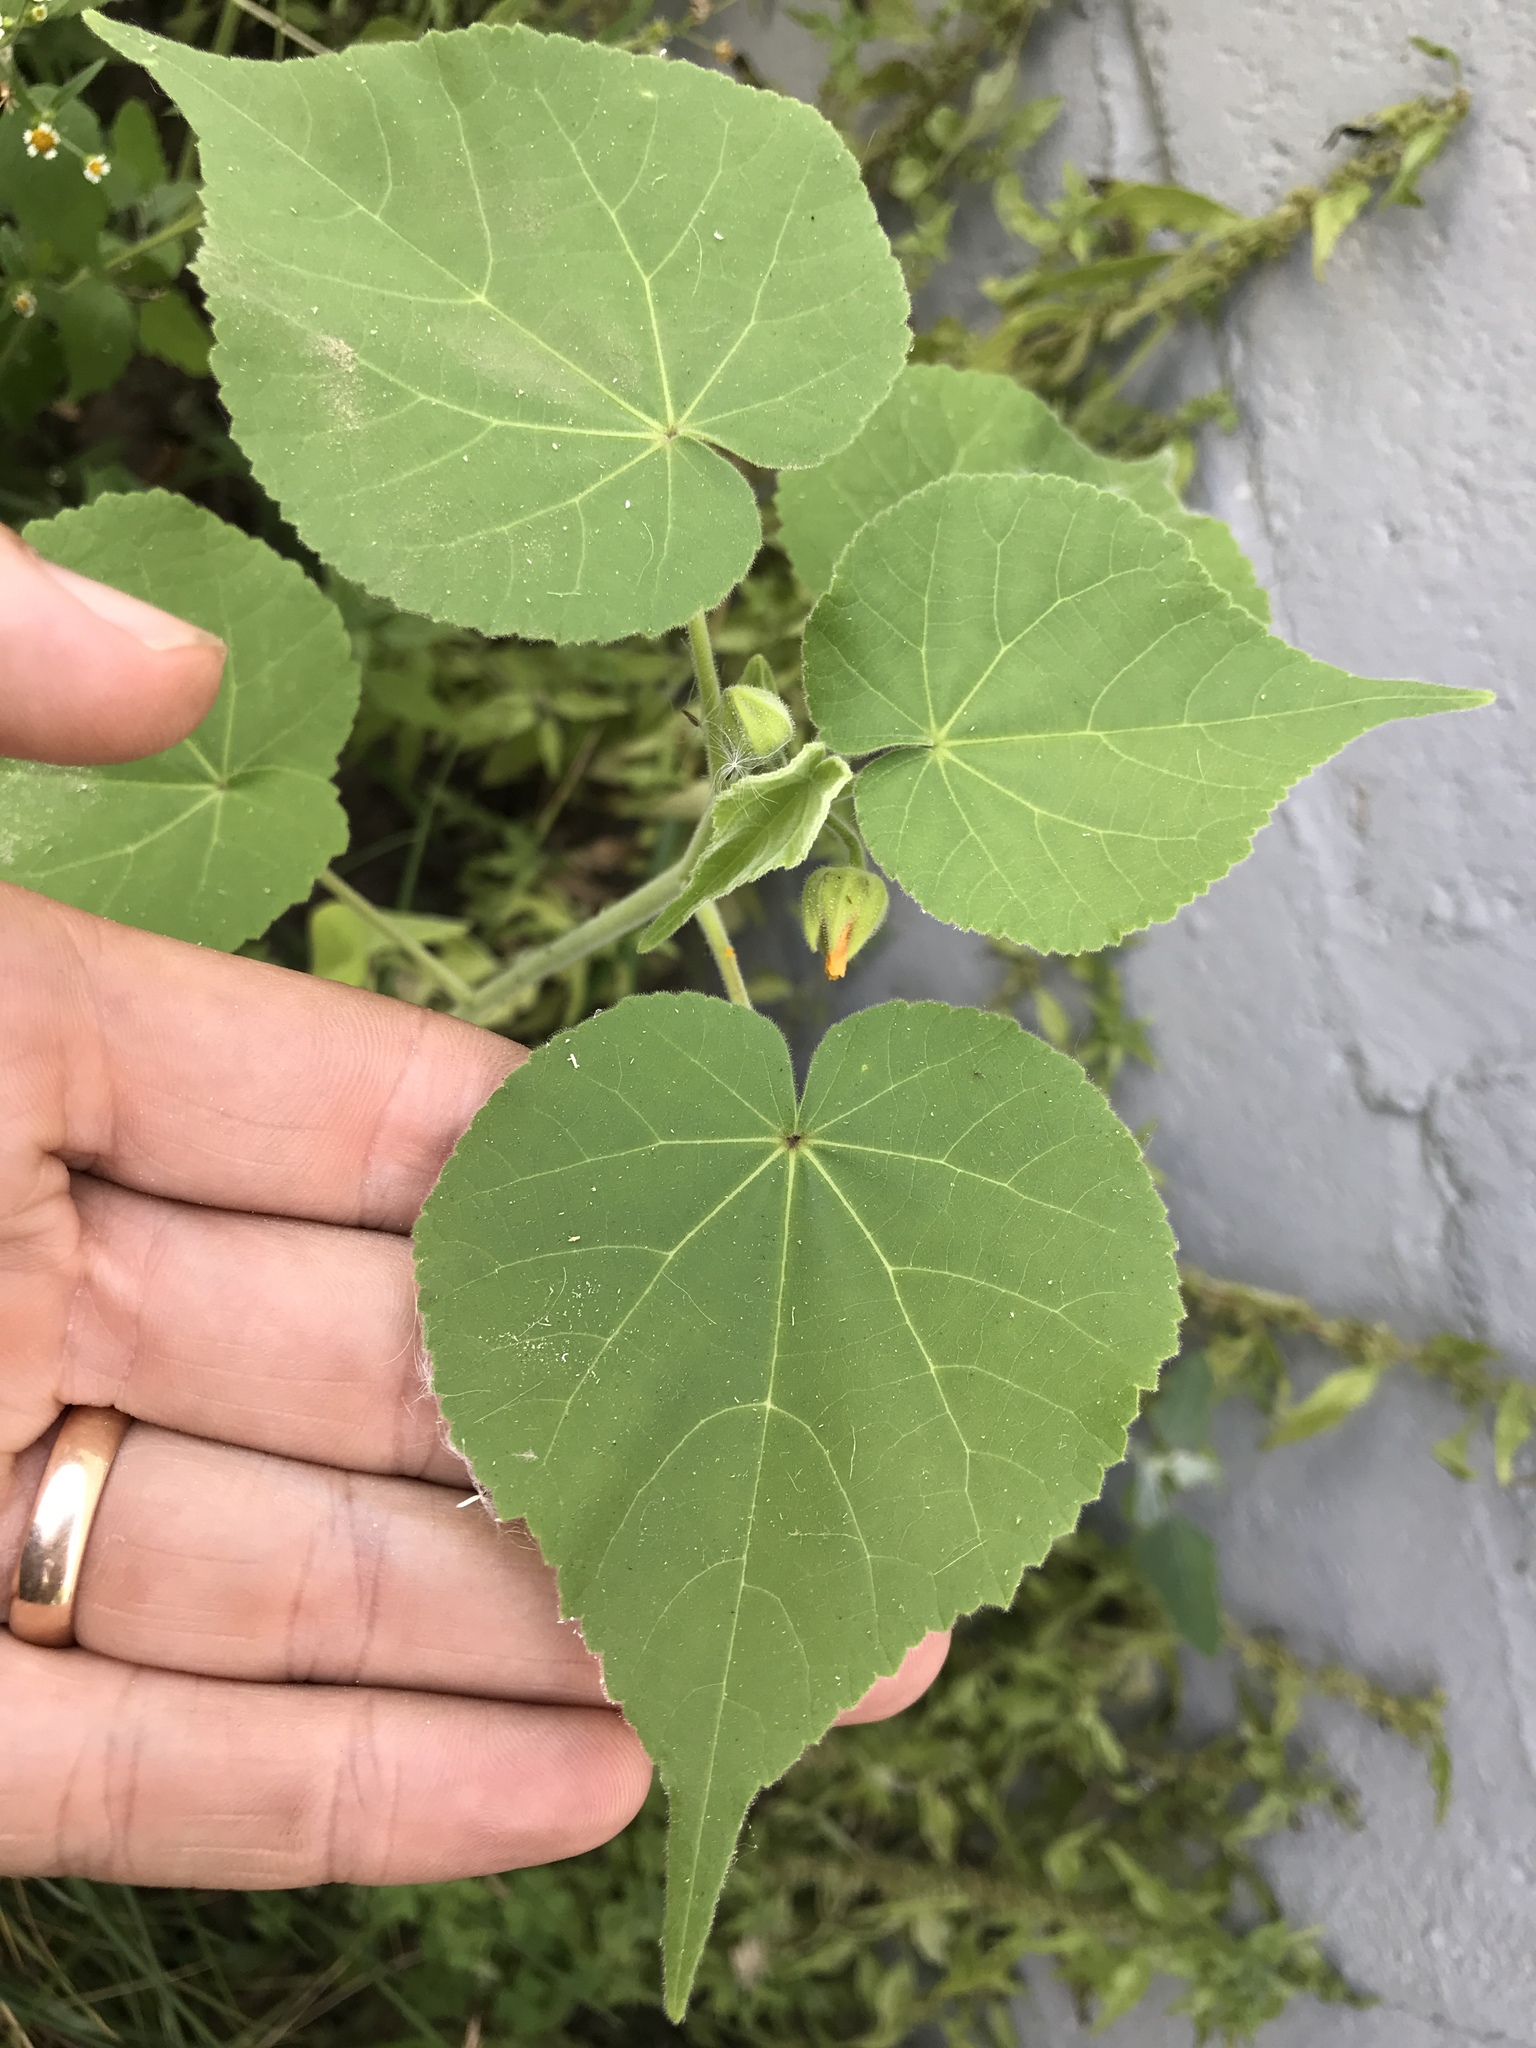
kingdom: Plantae
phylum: Tracheophyta
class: Magnoliopsida
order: Malvales
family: Malvaceae
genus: Abutilon
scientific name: Abutilon theophrasti
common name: Velvetleaf
